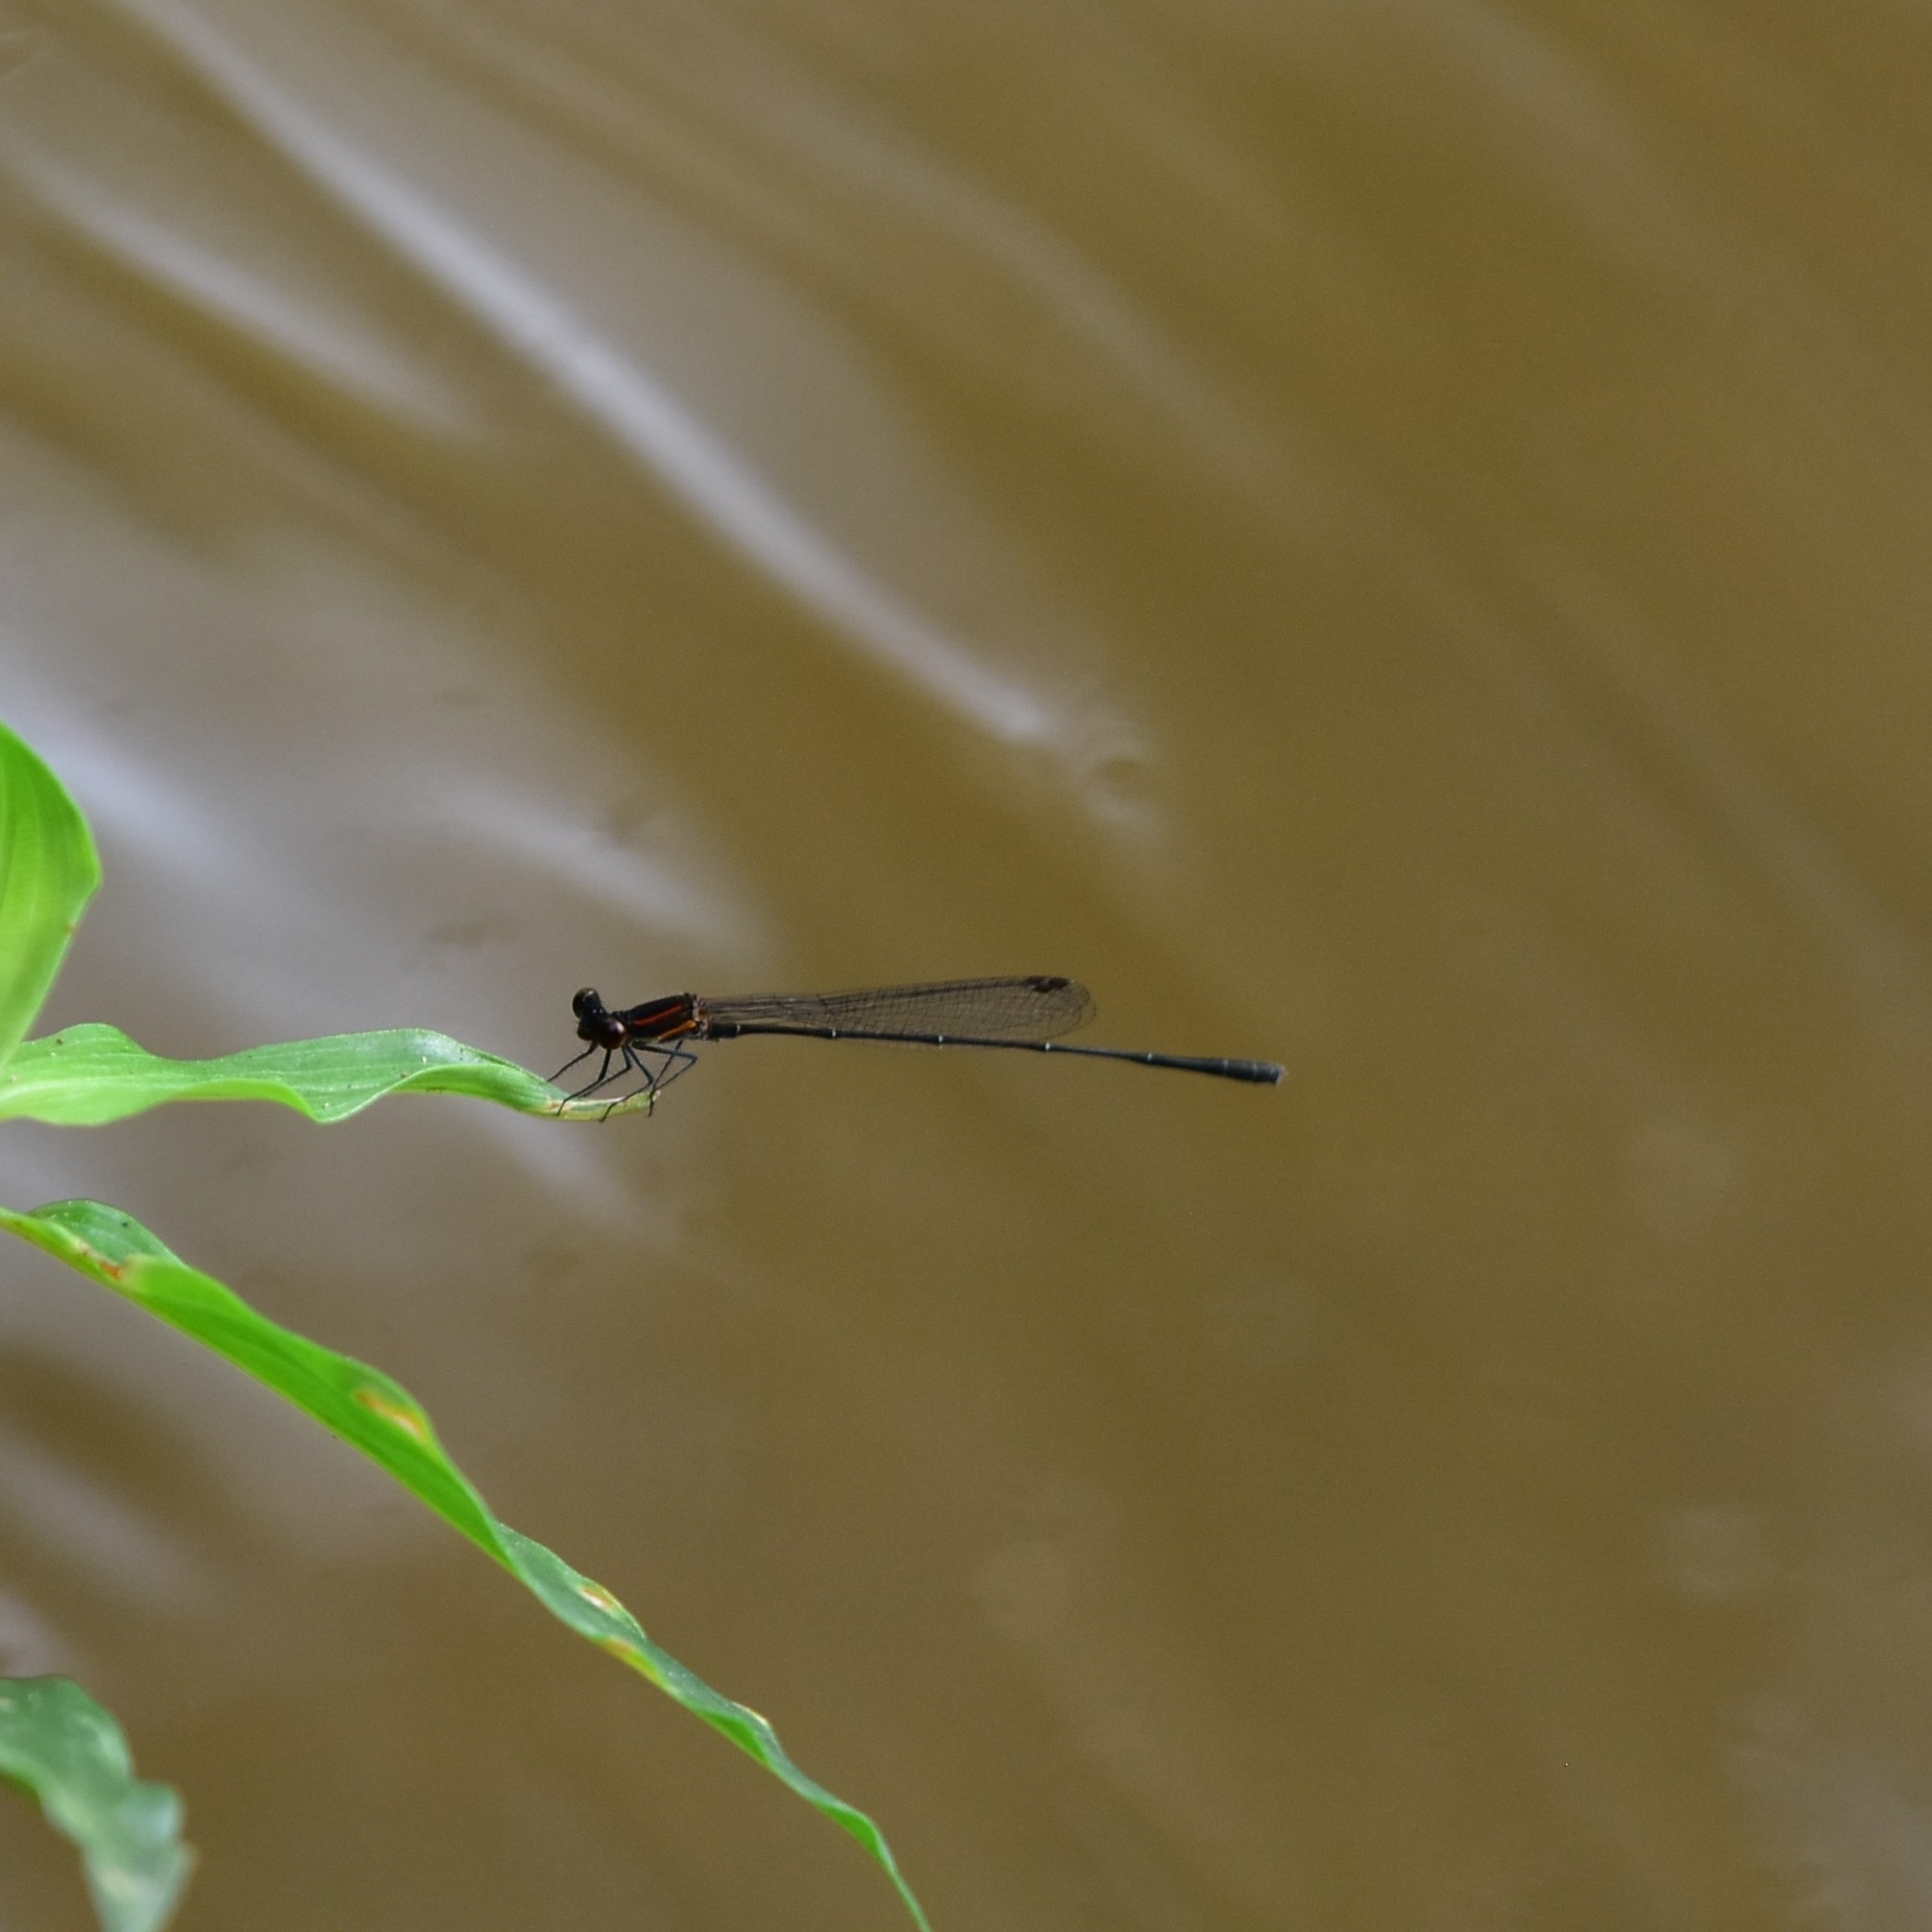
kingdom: Animalia
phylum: Arthropoda
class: Insecta
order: Odonata
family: Platycnemididae
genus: Prodasineura
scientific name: Prodasineura verticalis
